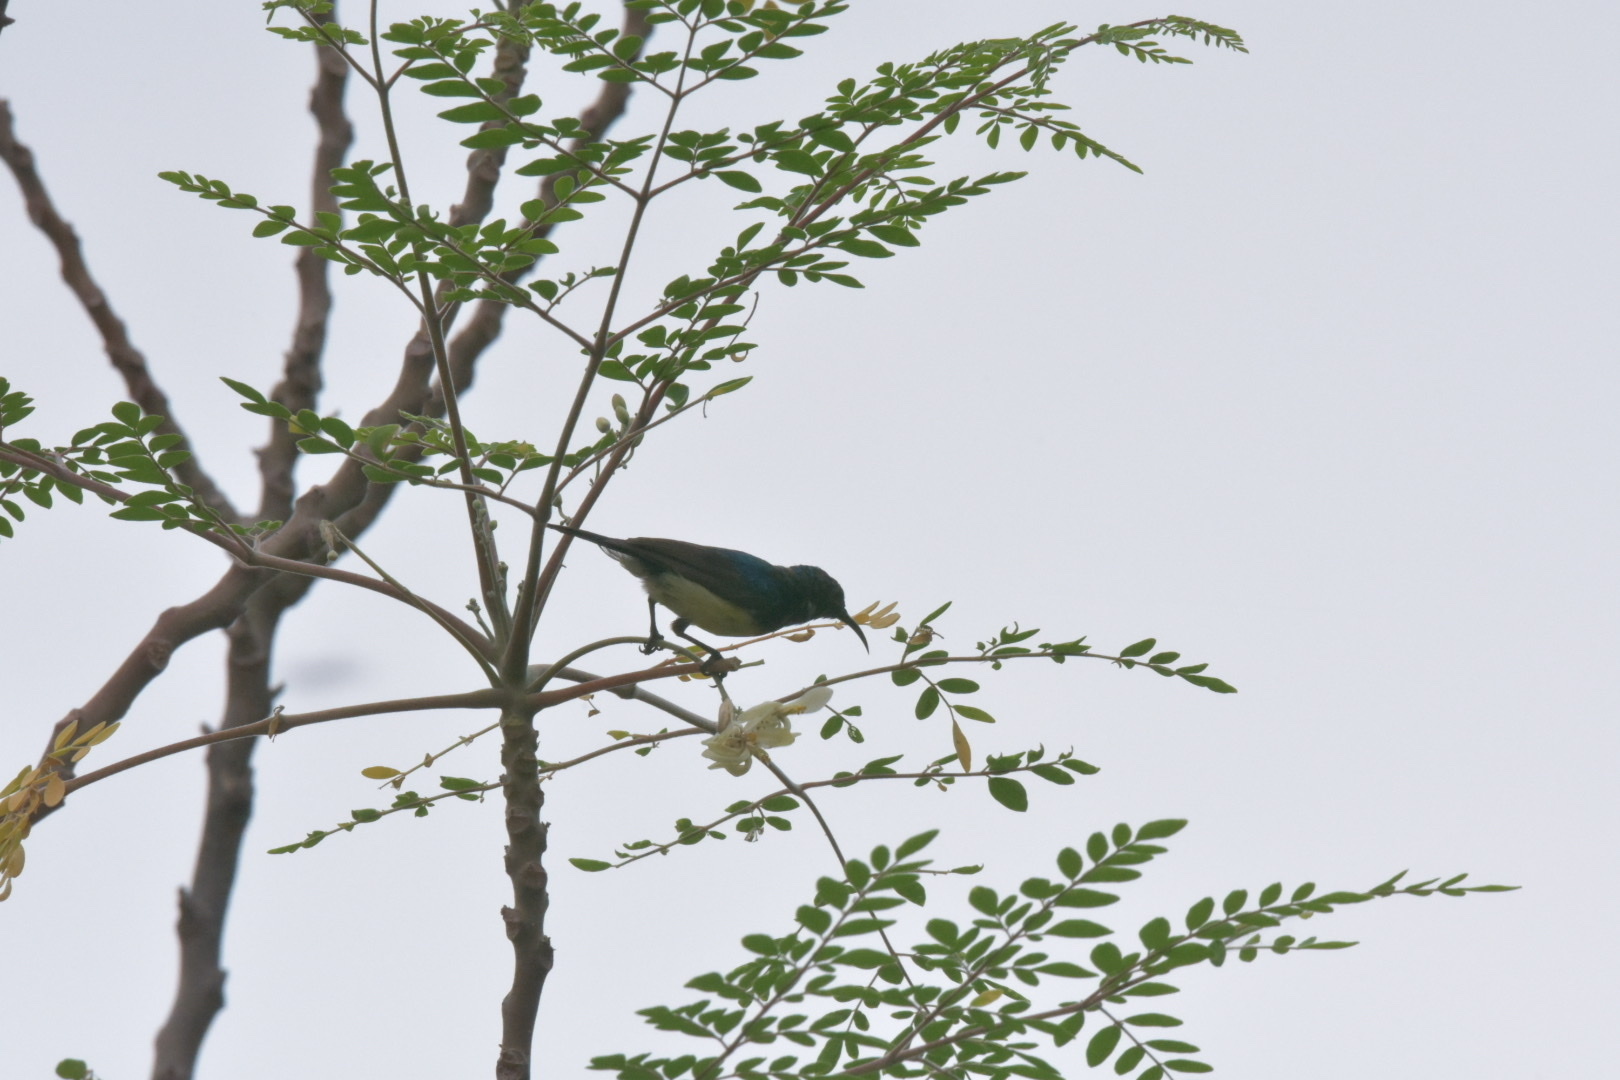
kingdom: Animalia
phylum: Chordata
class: Aves
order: Passeriformes
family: Nectariniidae
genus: Cinnyris
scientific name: Cinnyris venustus
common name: Variable sunbird
